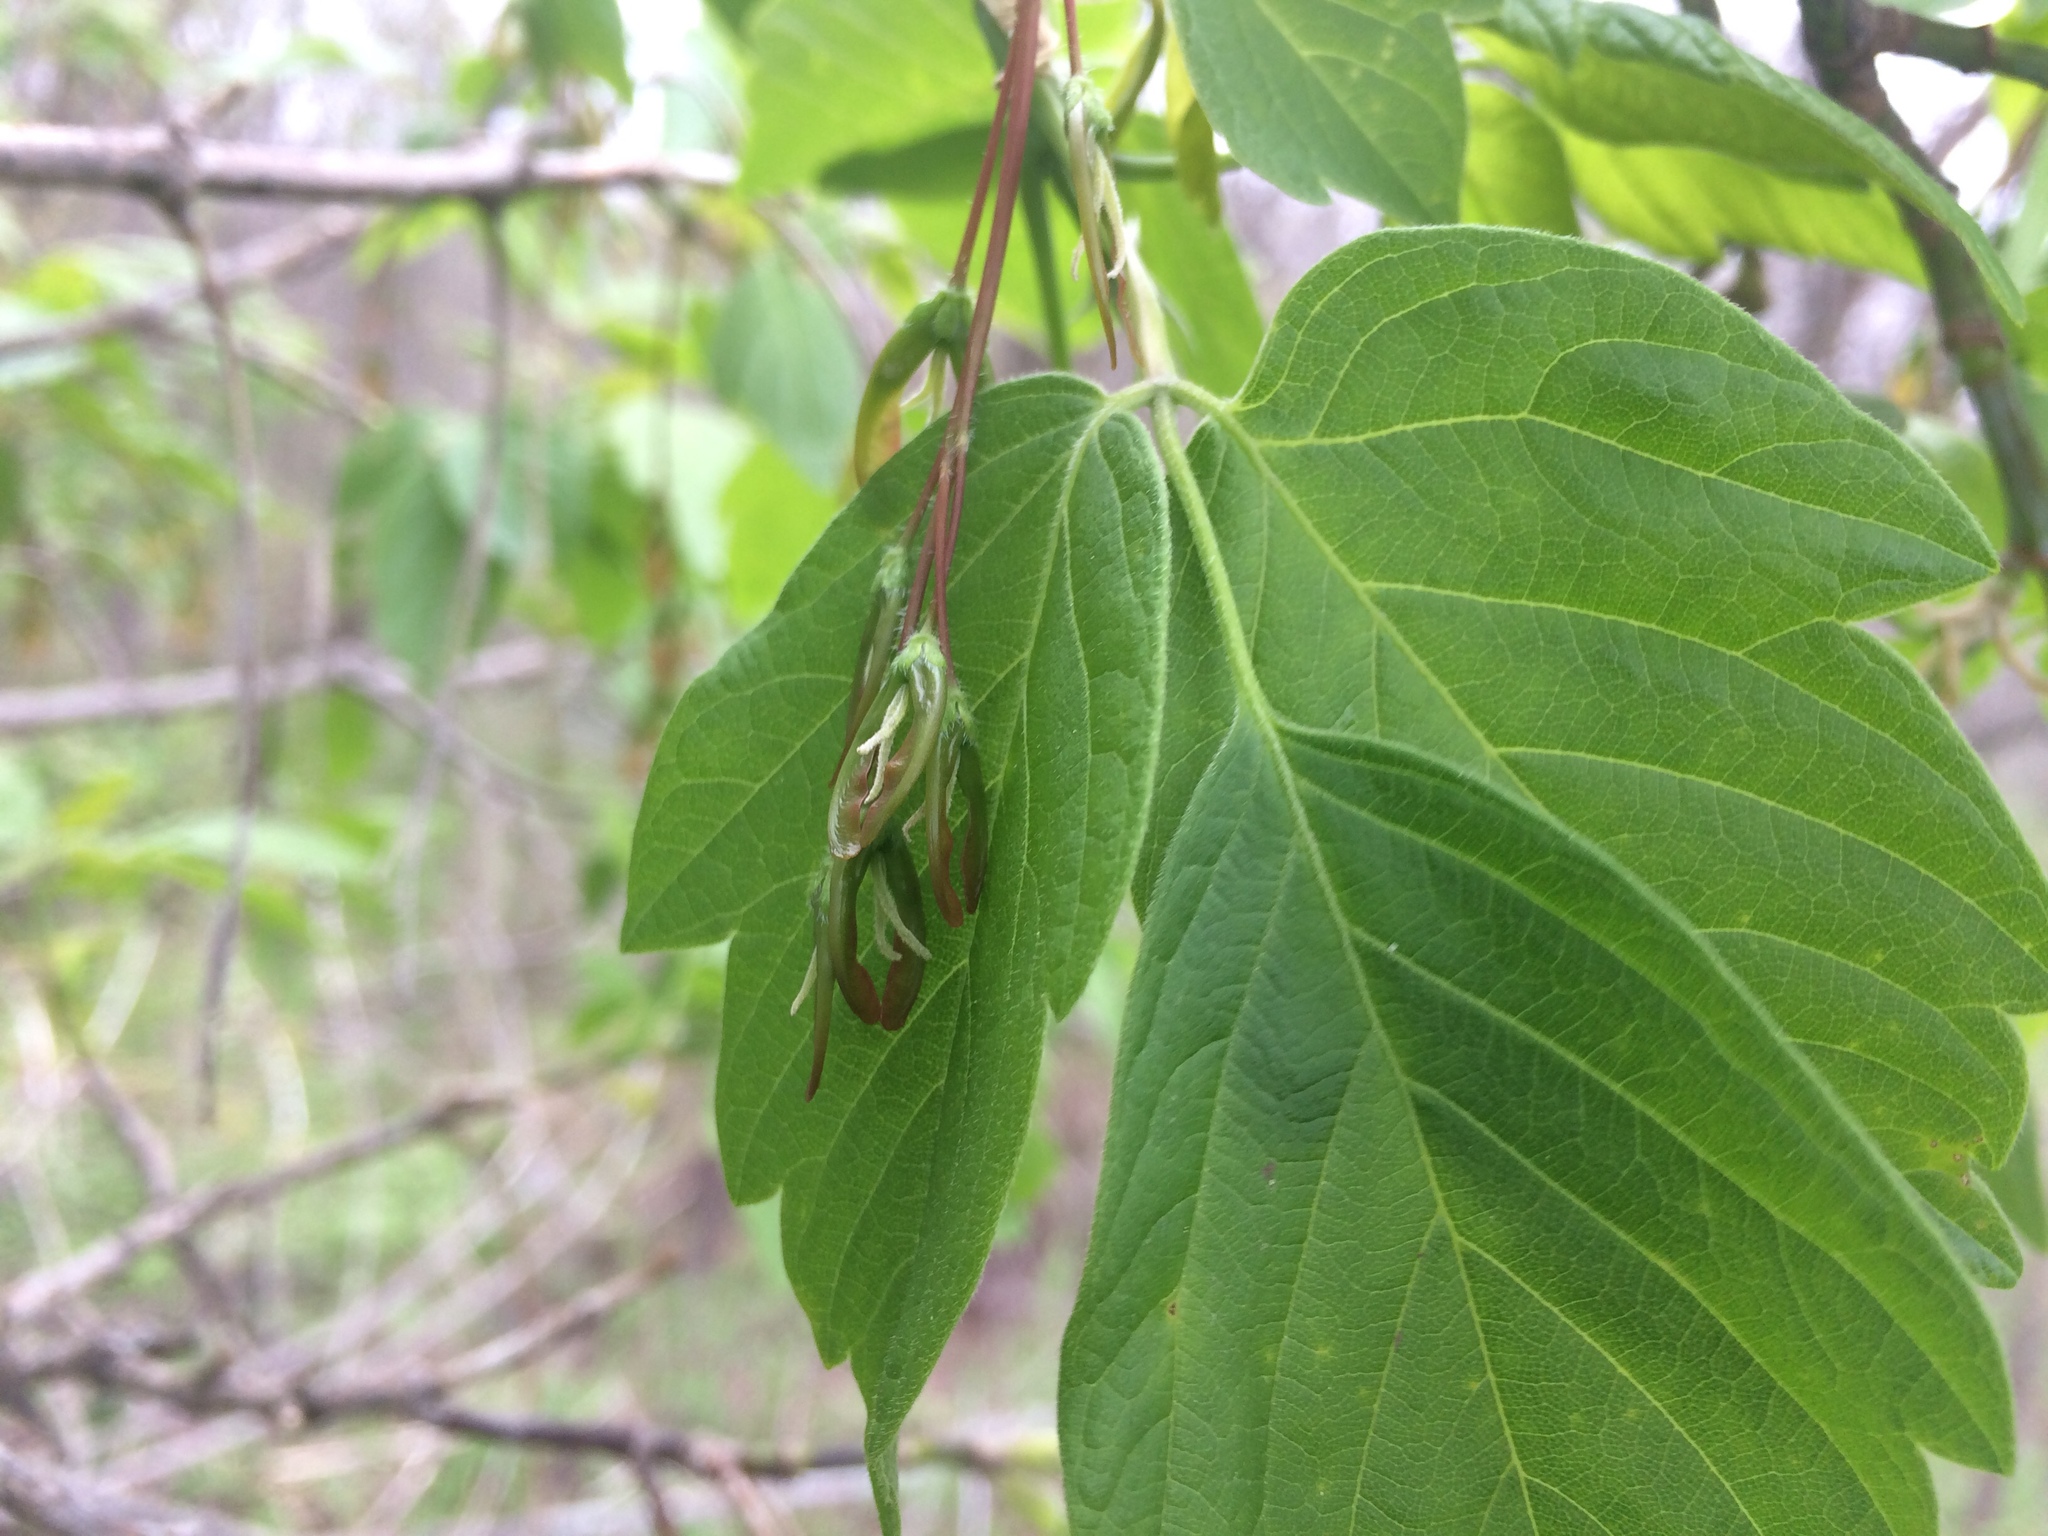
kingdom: Plantae
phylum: Tracheophyta
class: Magnoliopsida
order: Sapindales
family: Sapindaceae
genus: Acer
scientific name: Acer negundo
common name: Ashleaf maple
